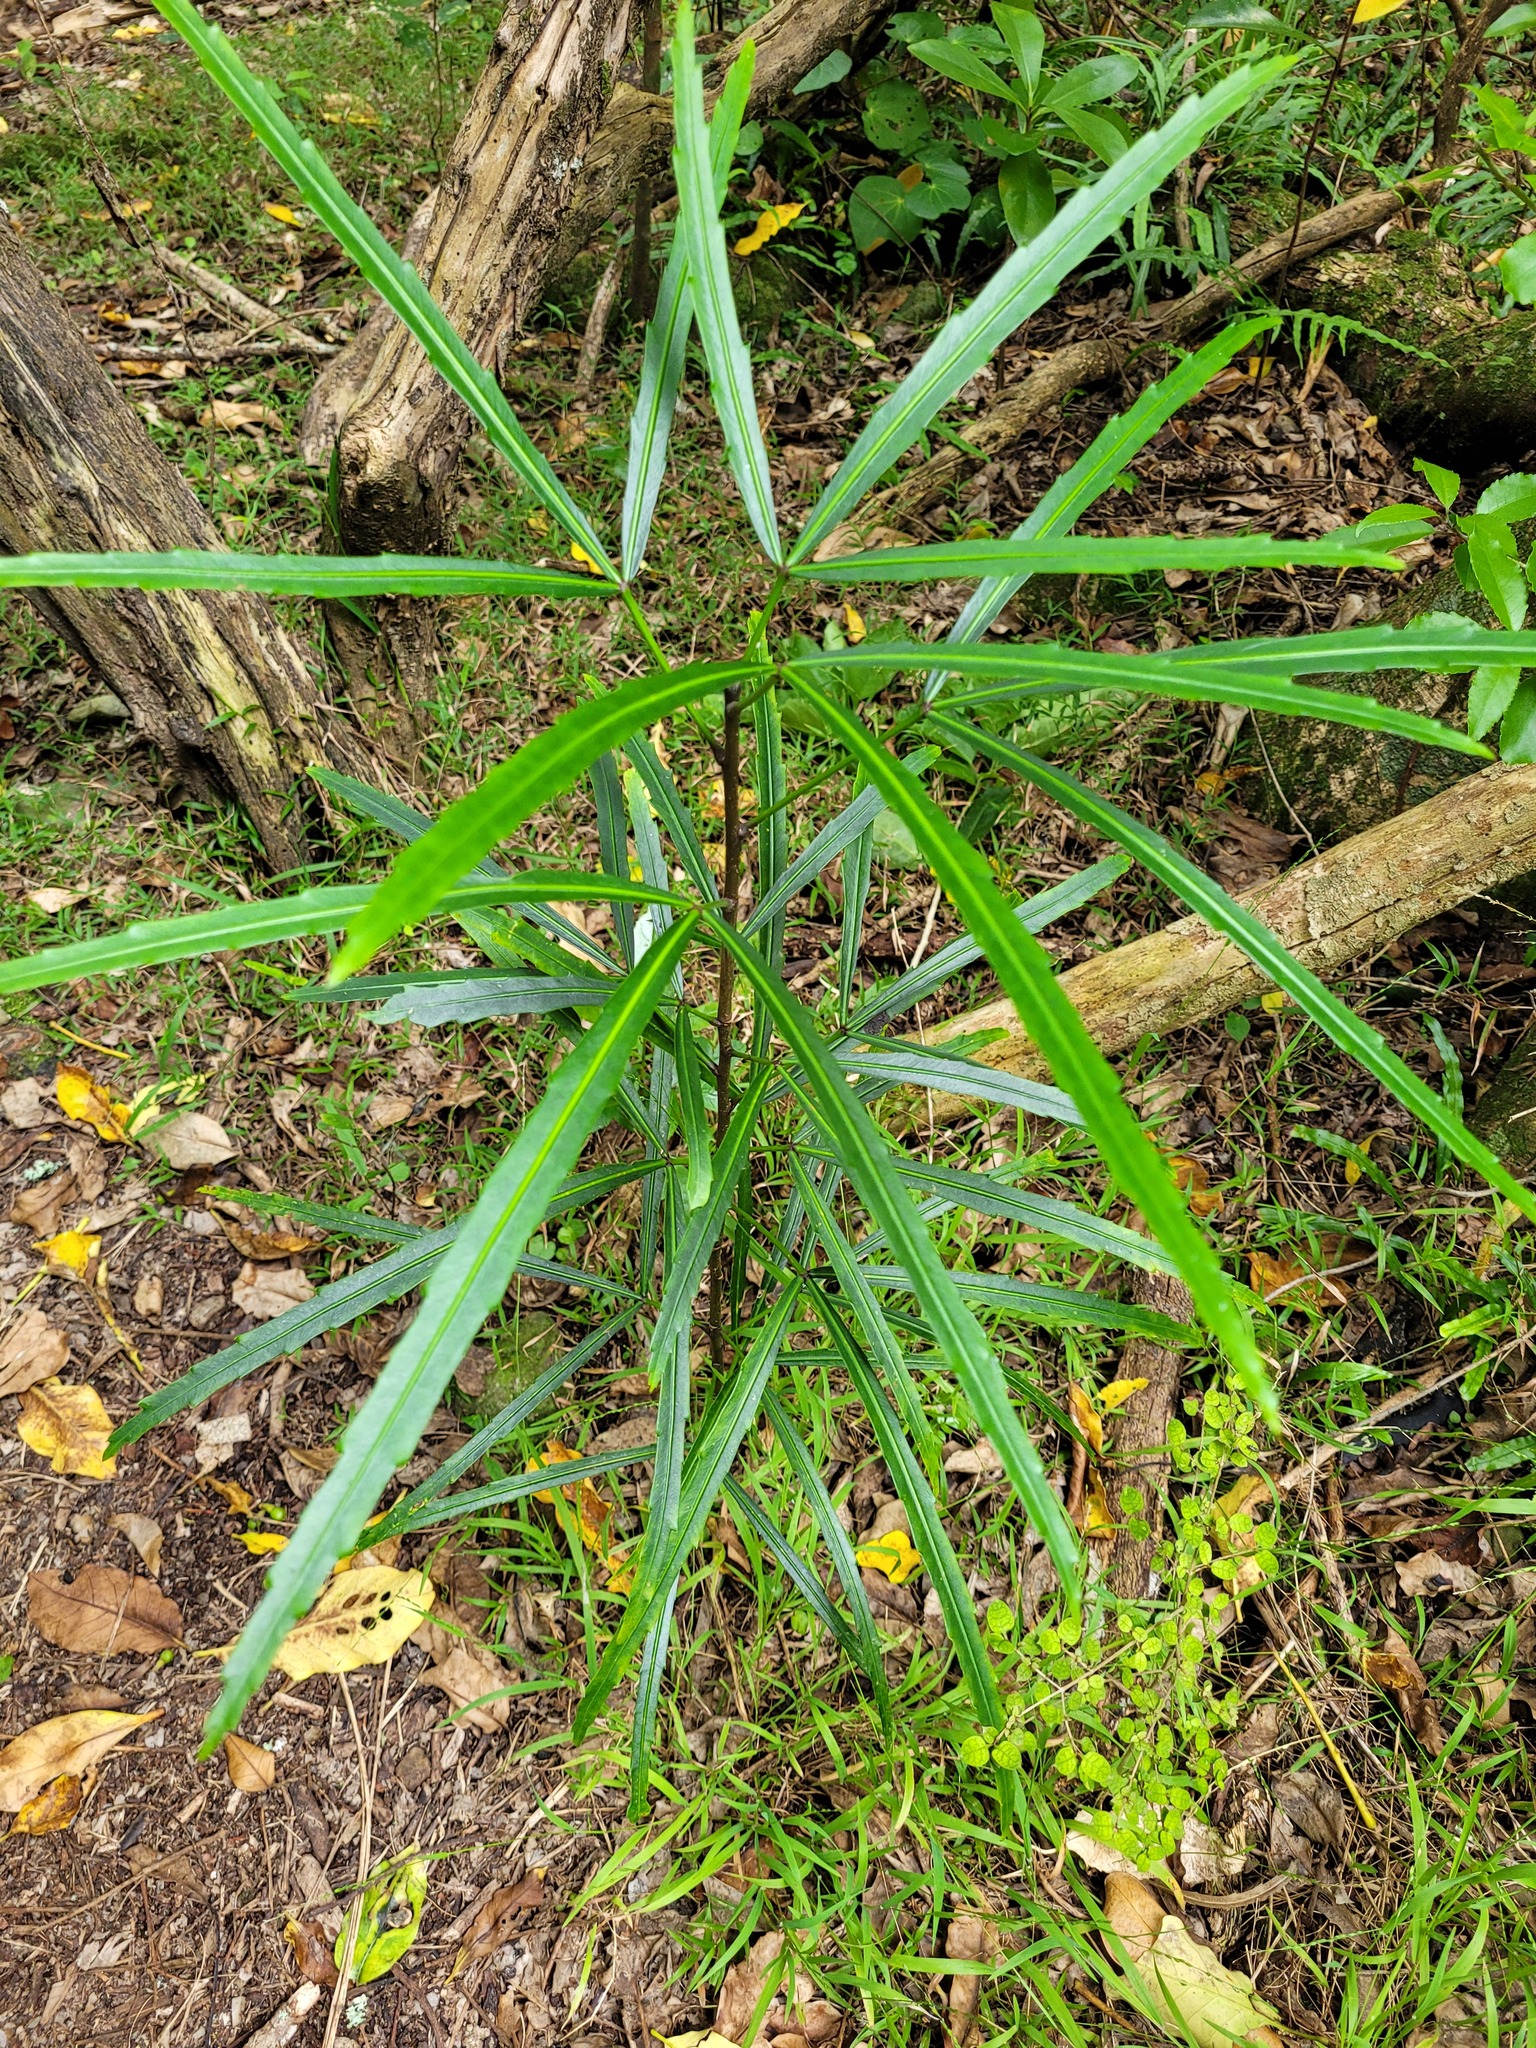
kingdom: Plantae
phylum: Tracheophyta
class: Magnoliopsida
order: Apiales
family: Araliaceae
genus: Pseudopanax
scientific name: Pseudopanax
